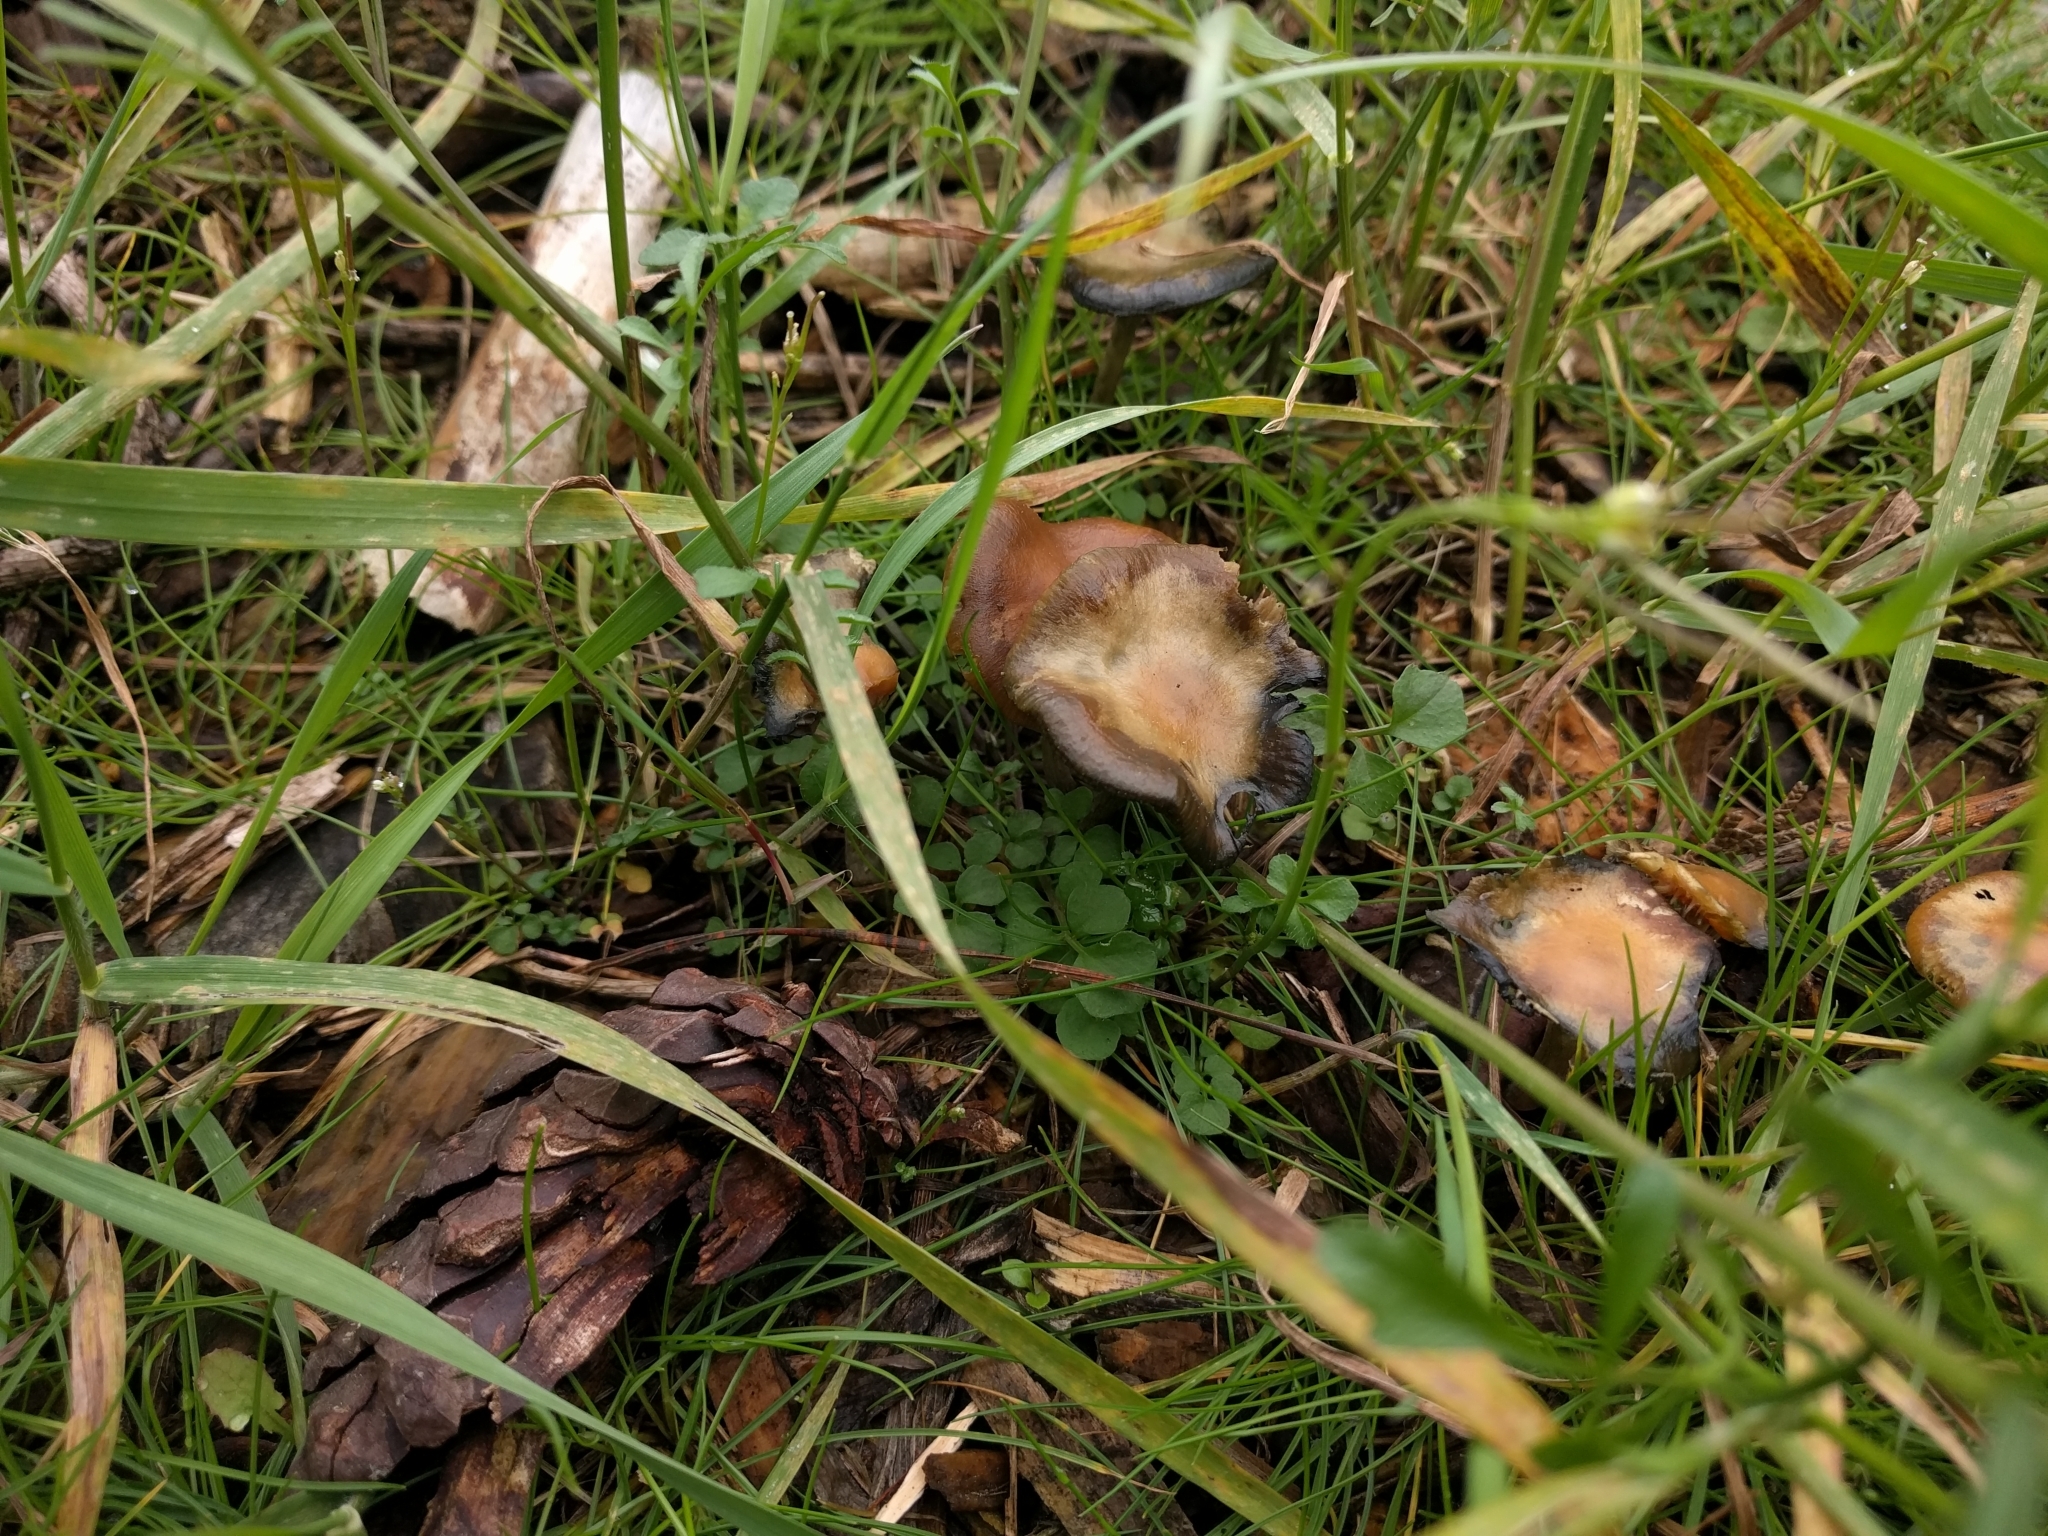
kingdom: Fungi
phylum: Basidiomycota
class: Agaricomycetes
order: Agaricales
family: Hymenogastraceae
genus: Psilocybe
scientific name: Psilocybe cyanescens
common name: Blueleg brownie
